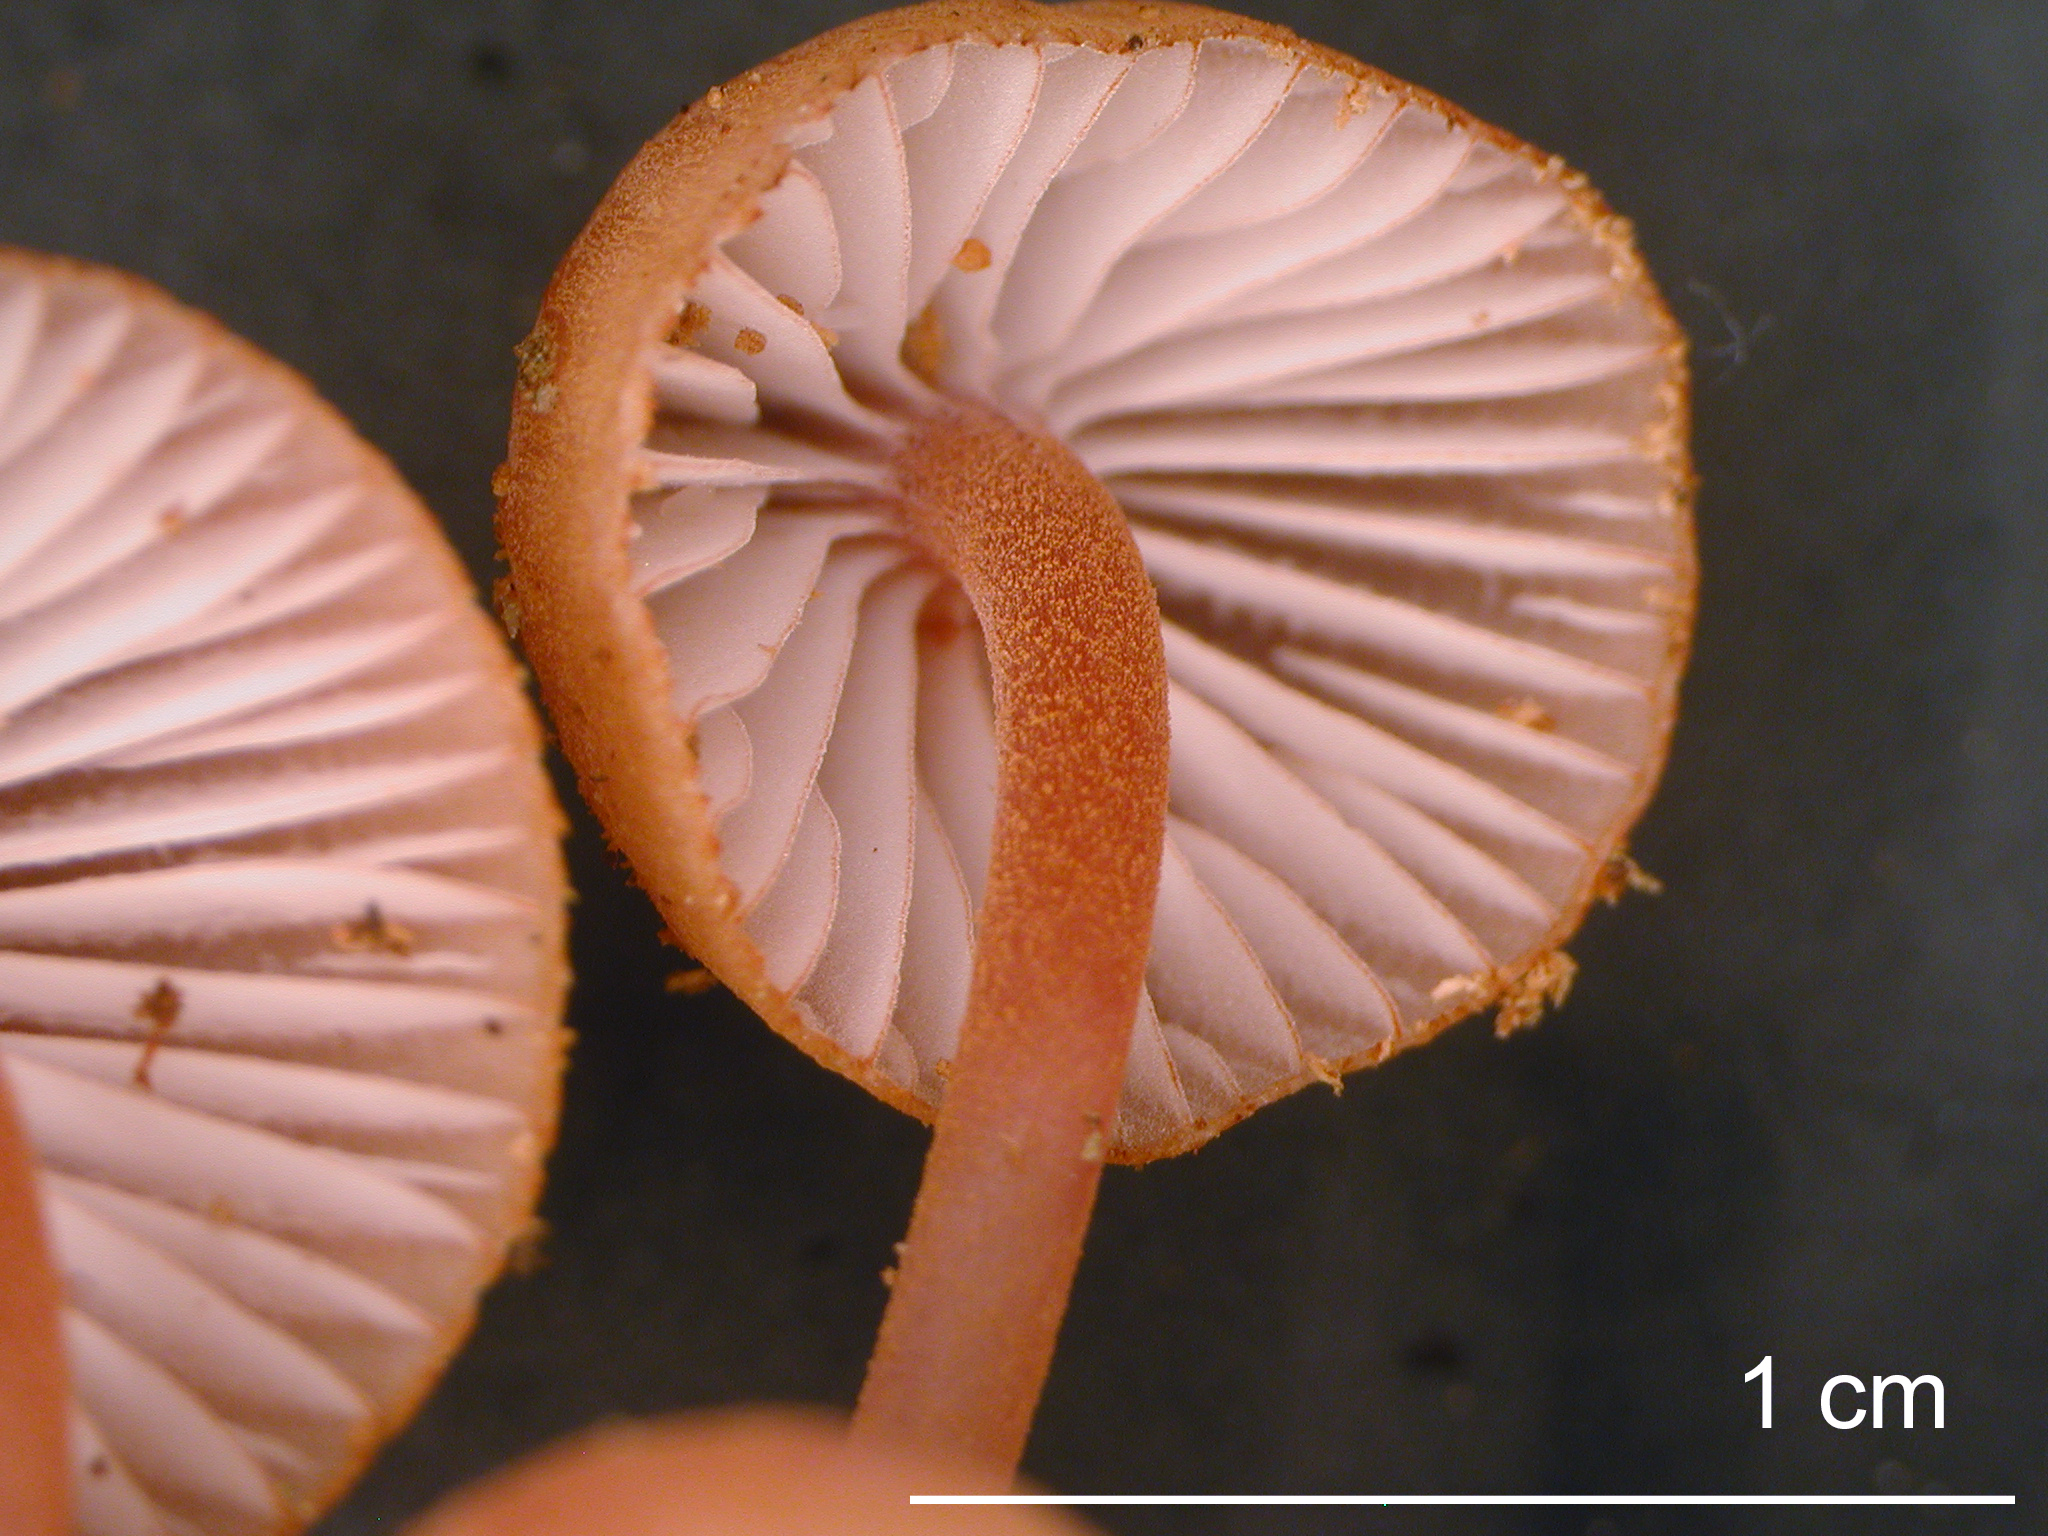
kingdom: Fungi
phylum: Basidiomycota
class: Agaricomycetes
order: Agaricales
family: Mycenaceae
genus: Mycena
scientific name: Mycena parsonsii
